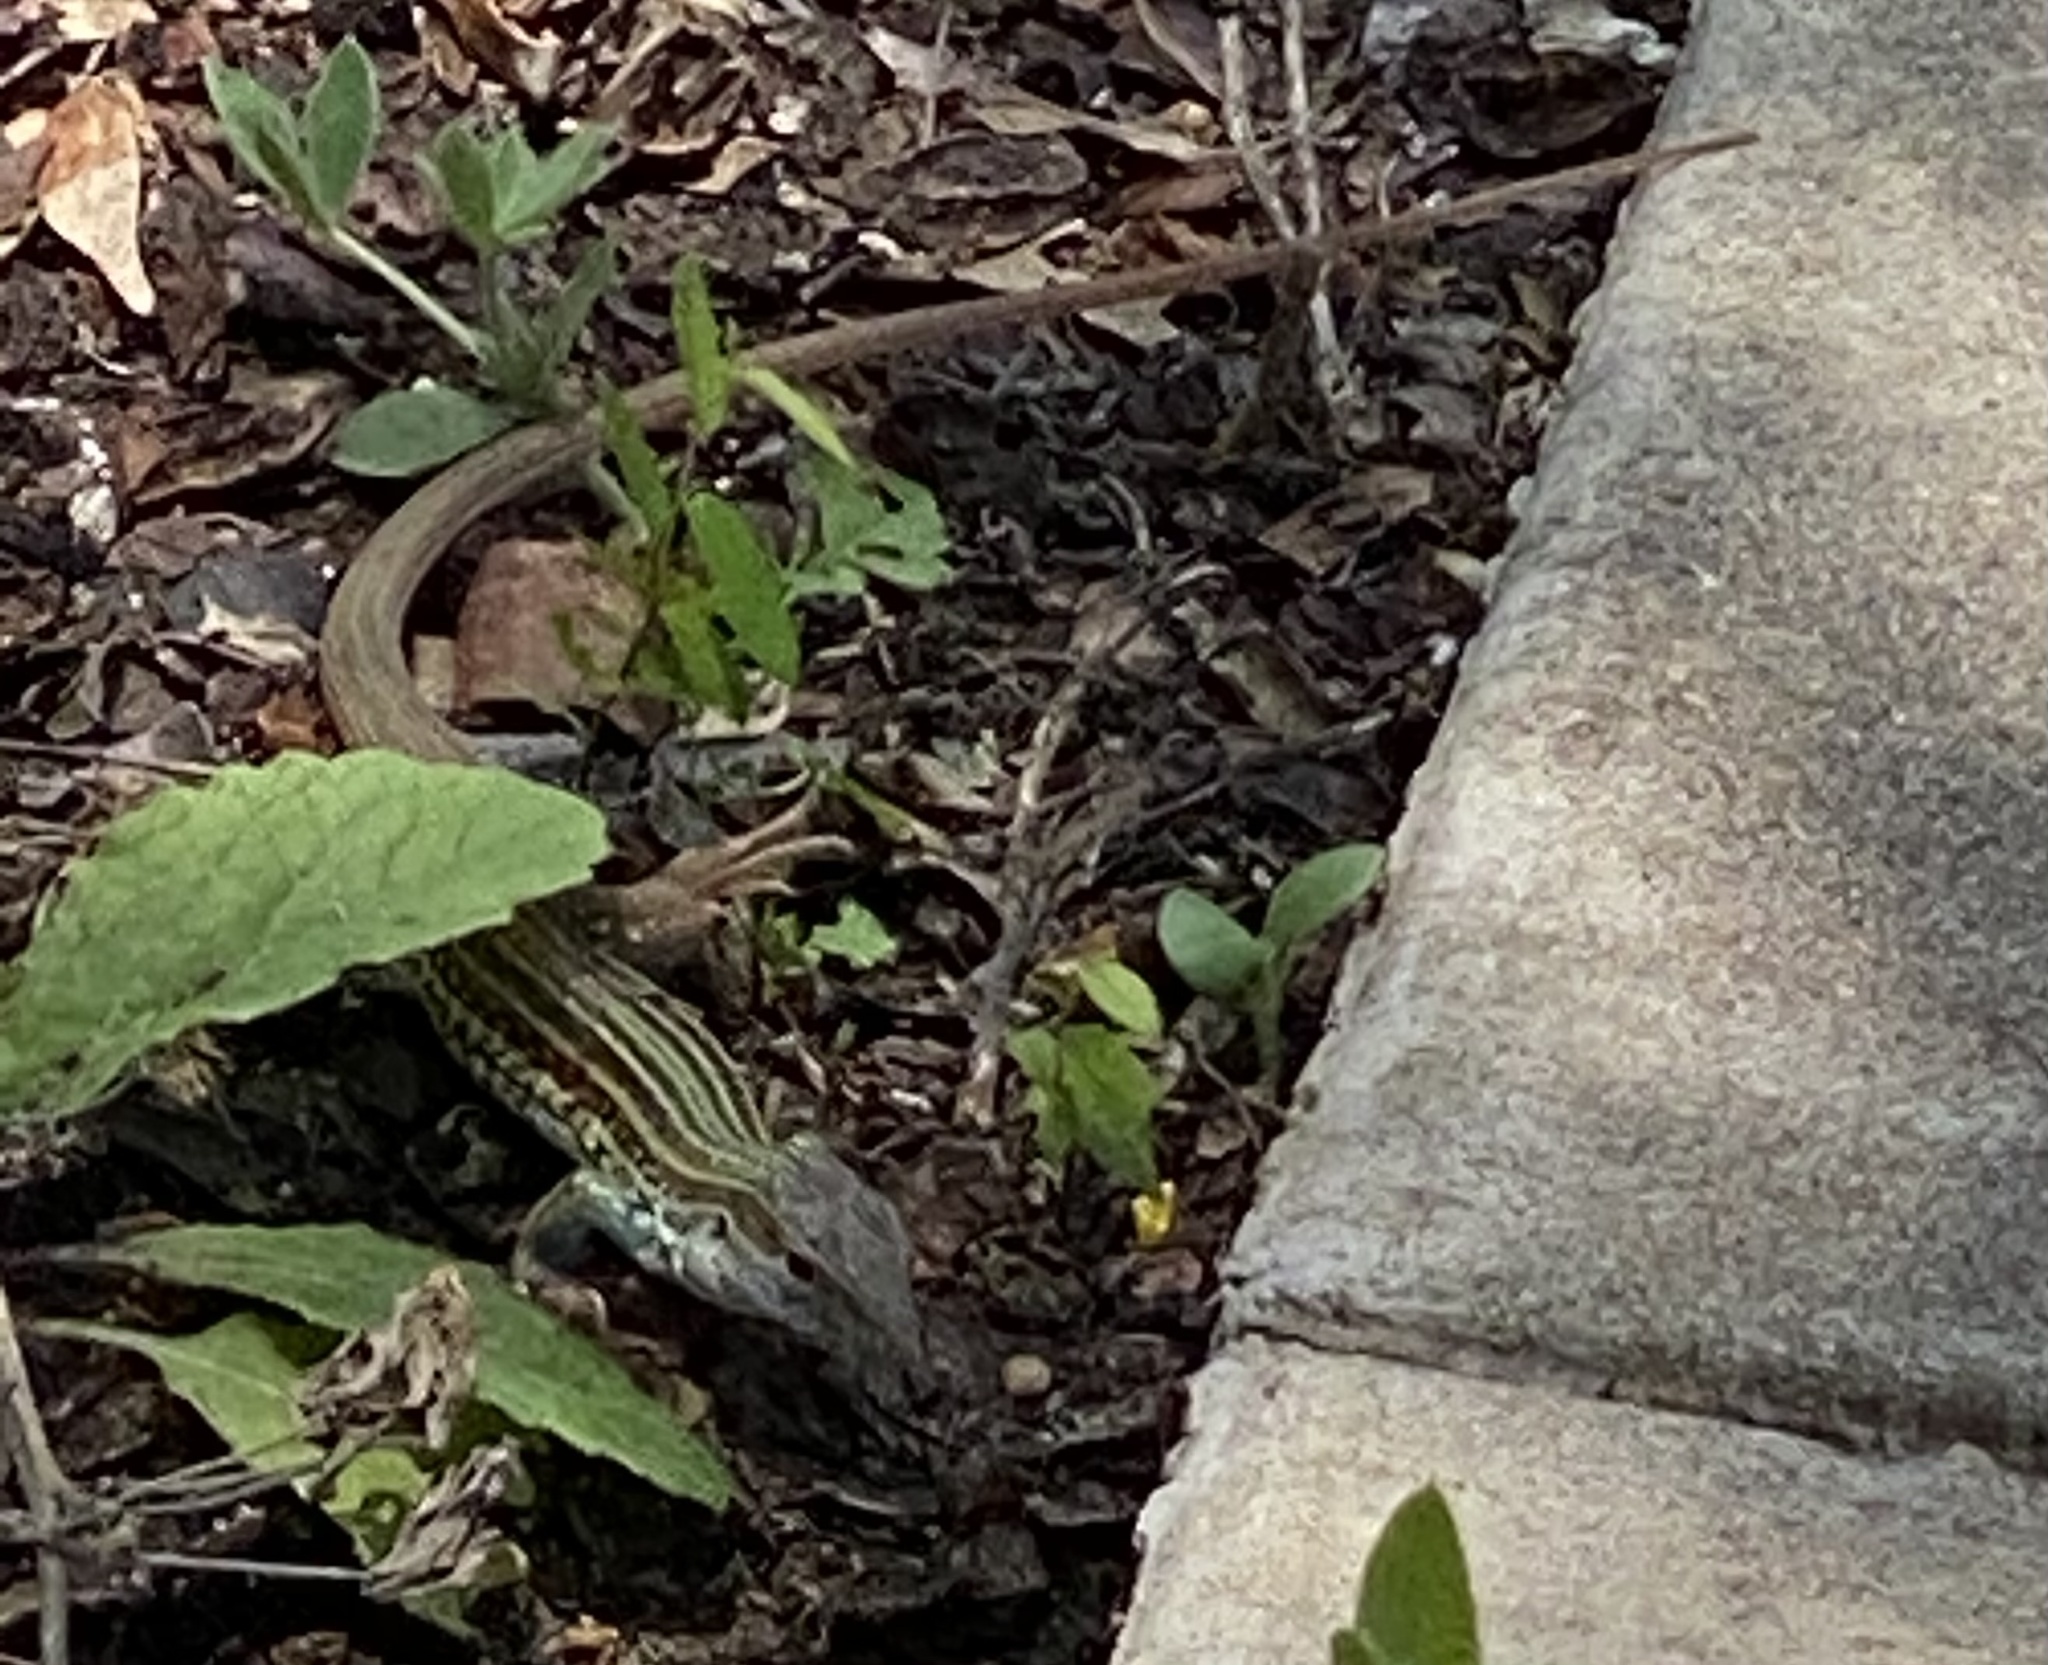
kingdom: Animalia
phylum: Chordata
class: Squamata
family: Teiidae
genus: Aspidoscelis
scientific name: Aspidoscelis gularis
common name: Eastern spotted whiptail
